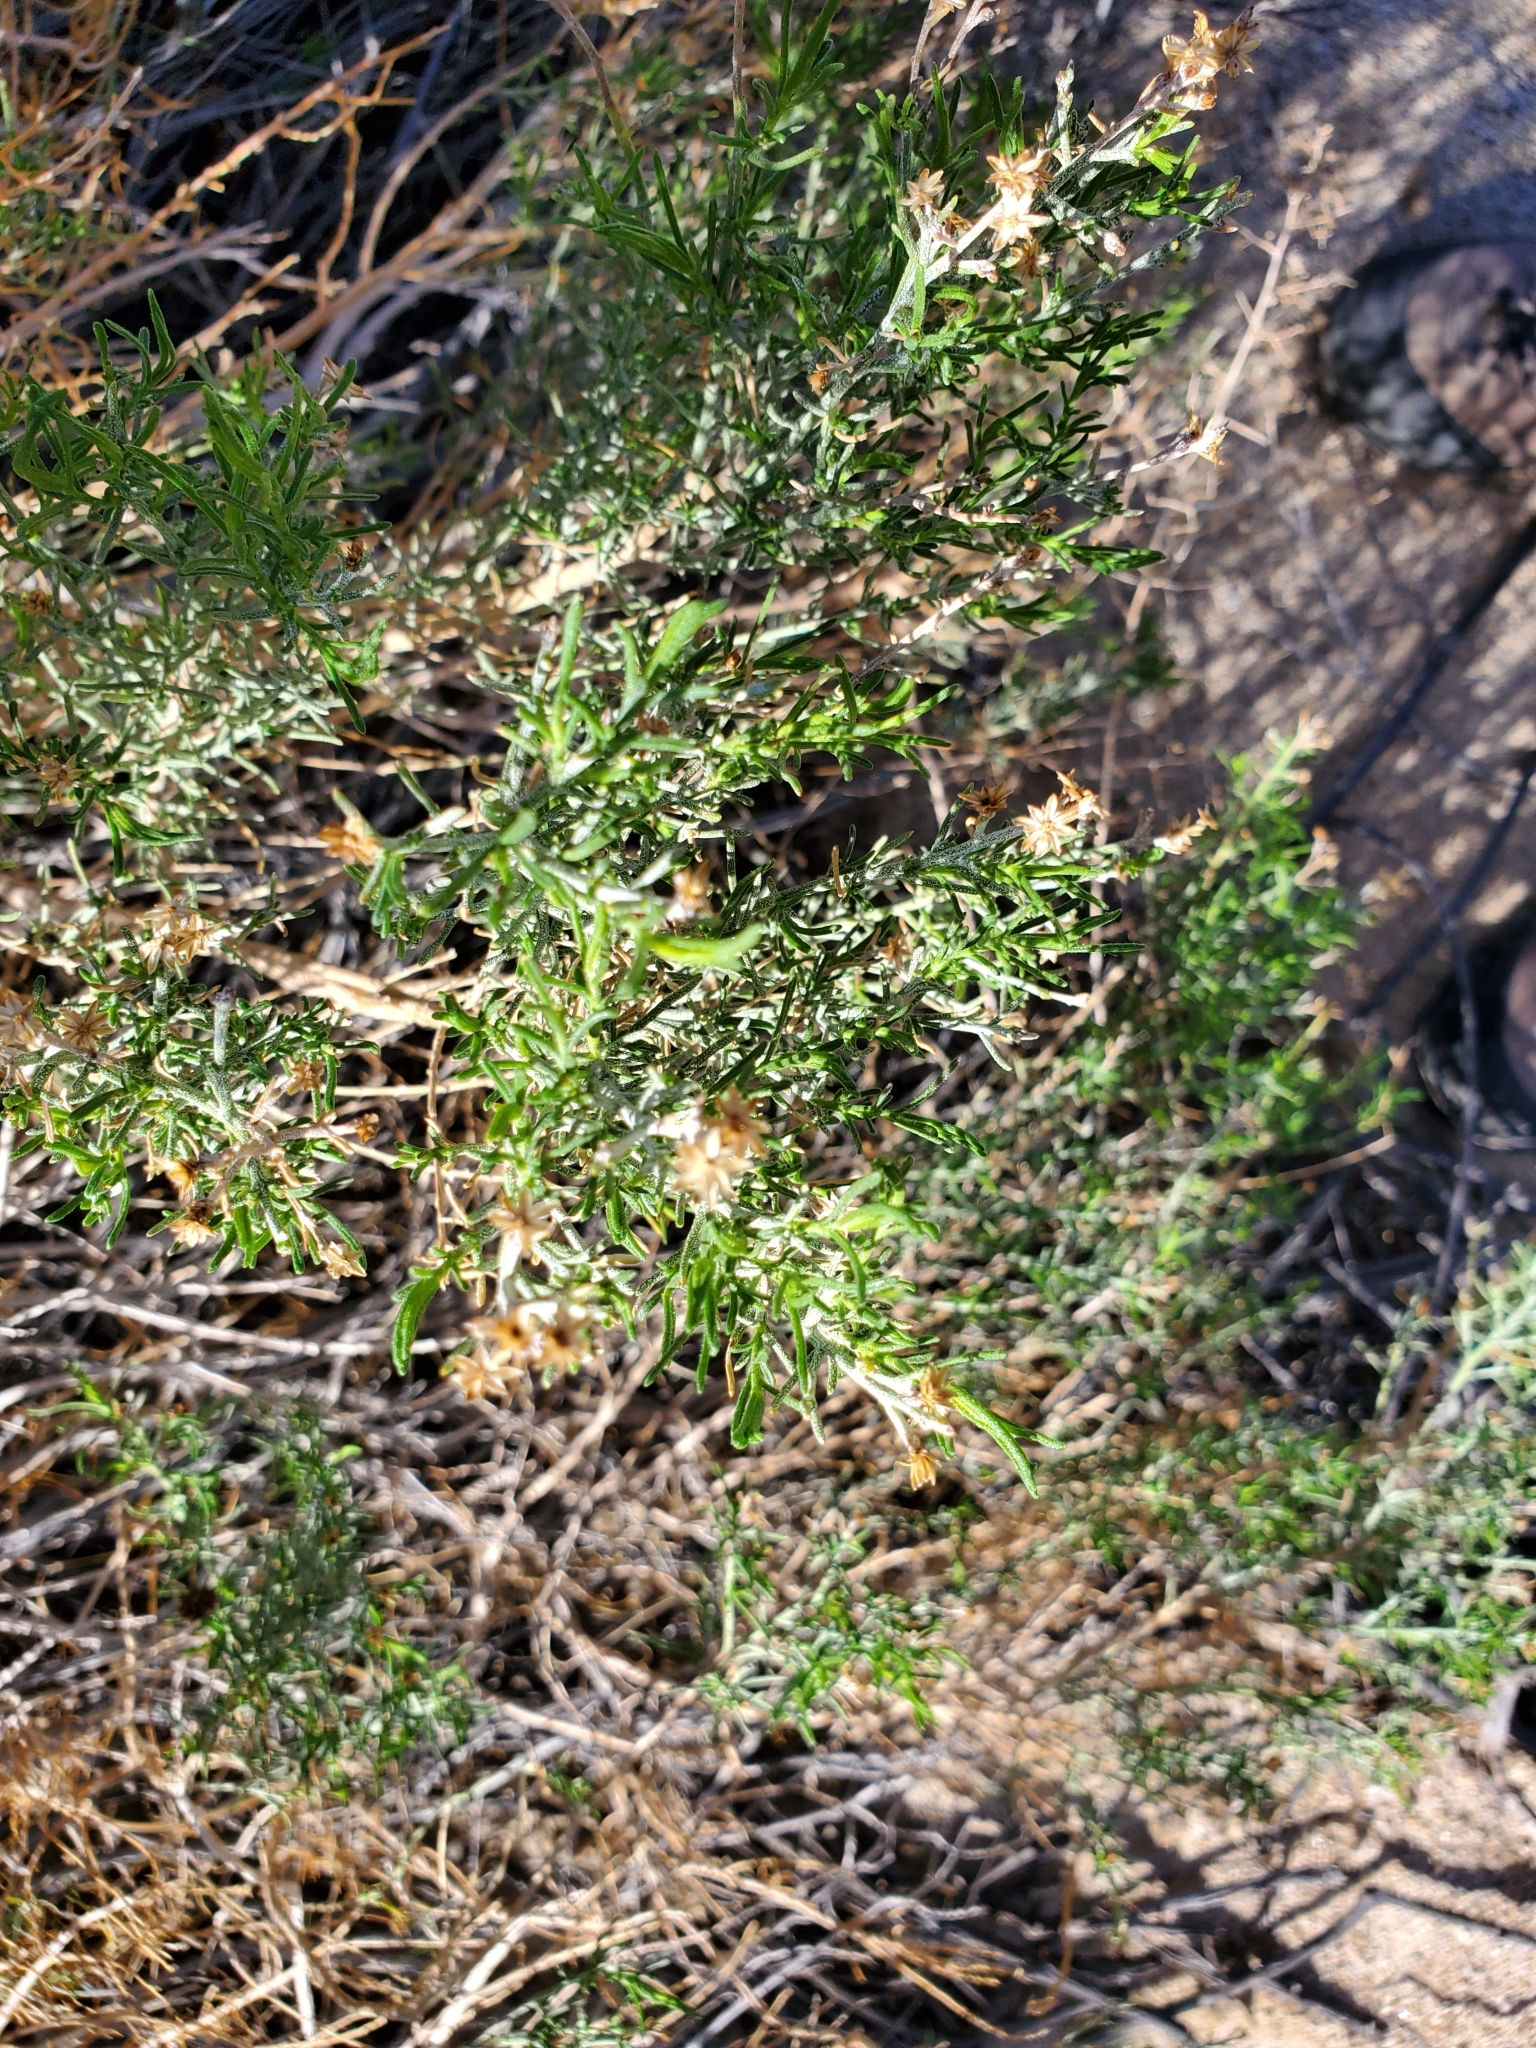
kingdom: Plantae
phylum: Tracheophyta
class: Magnoliopsida
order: Asterales
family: Asteraceae
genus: Ericameria
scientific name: Ericameria brachylepis
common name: Boundary goldenbush
